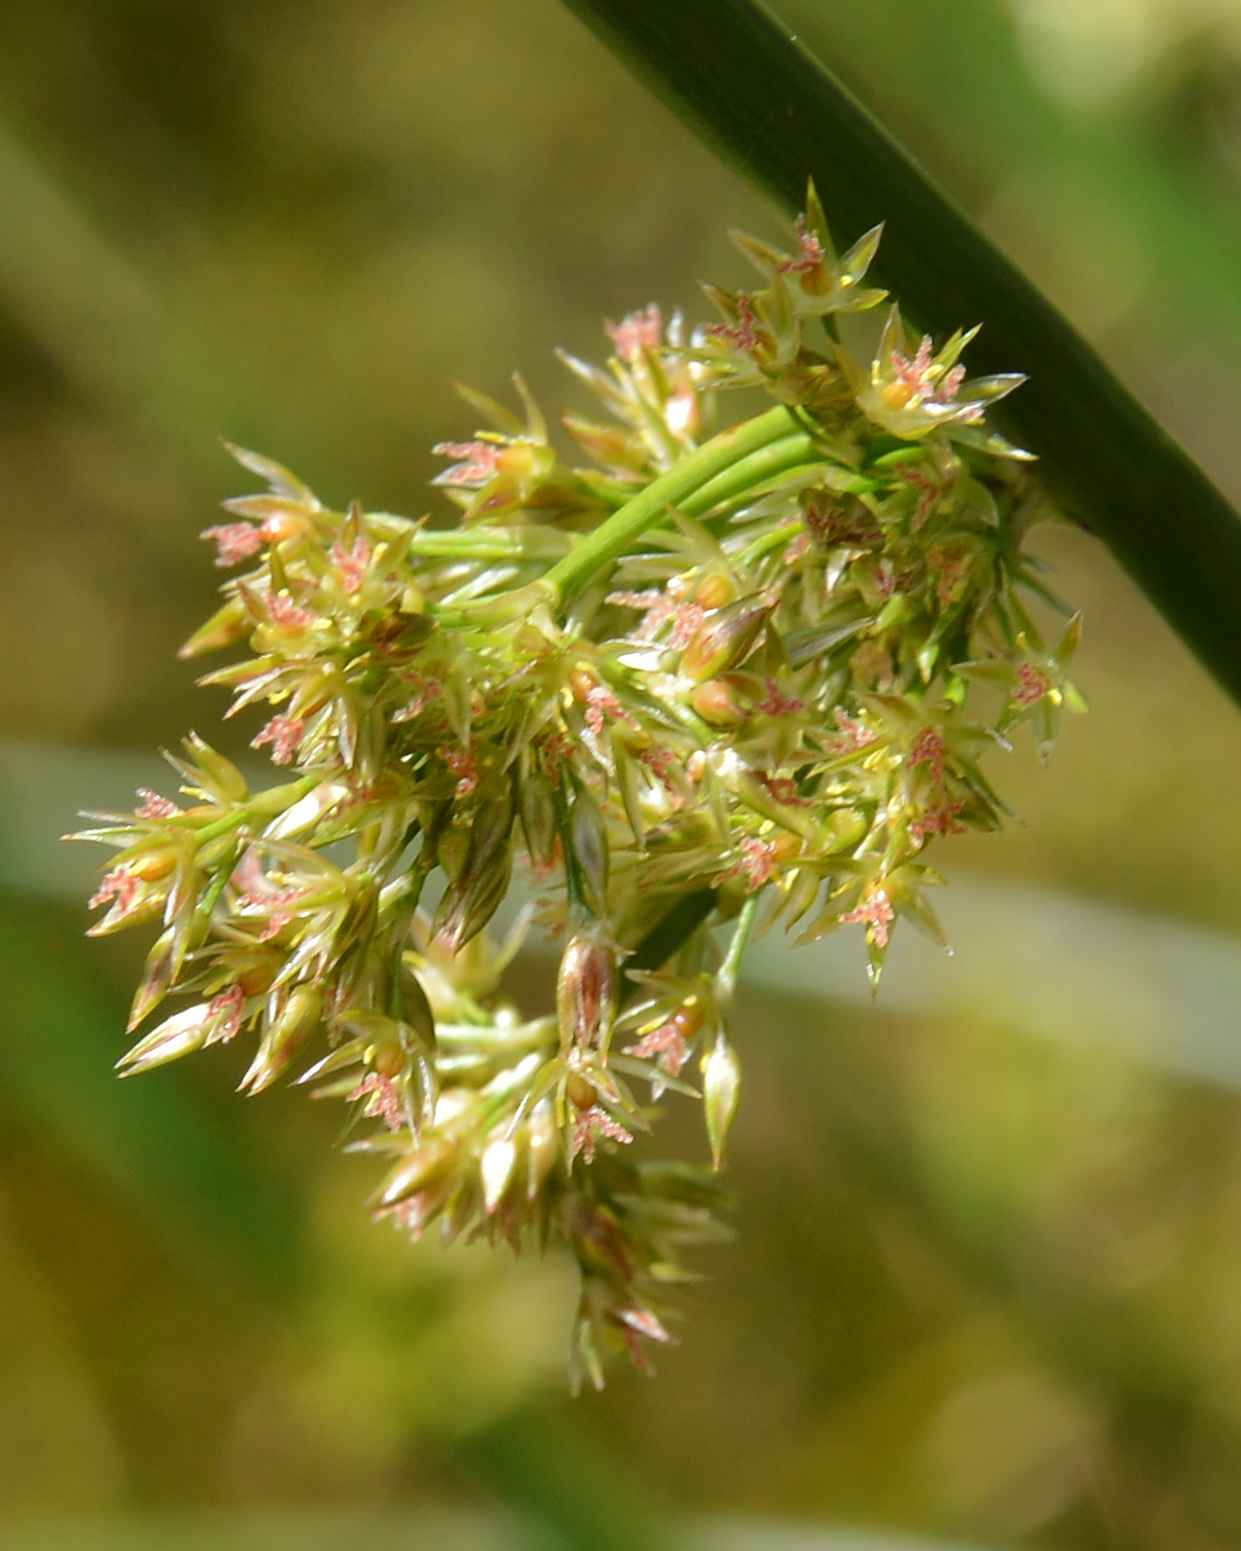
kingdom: Plantae
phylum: Tracheophyta
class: Liliopsida
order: Poales
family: Juncaceae
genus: Juncus
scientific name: Juncus effusus
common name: Soft rush
